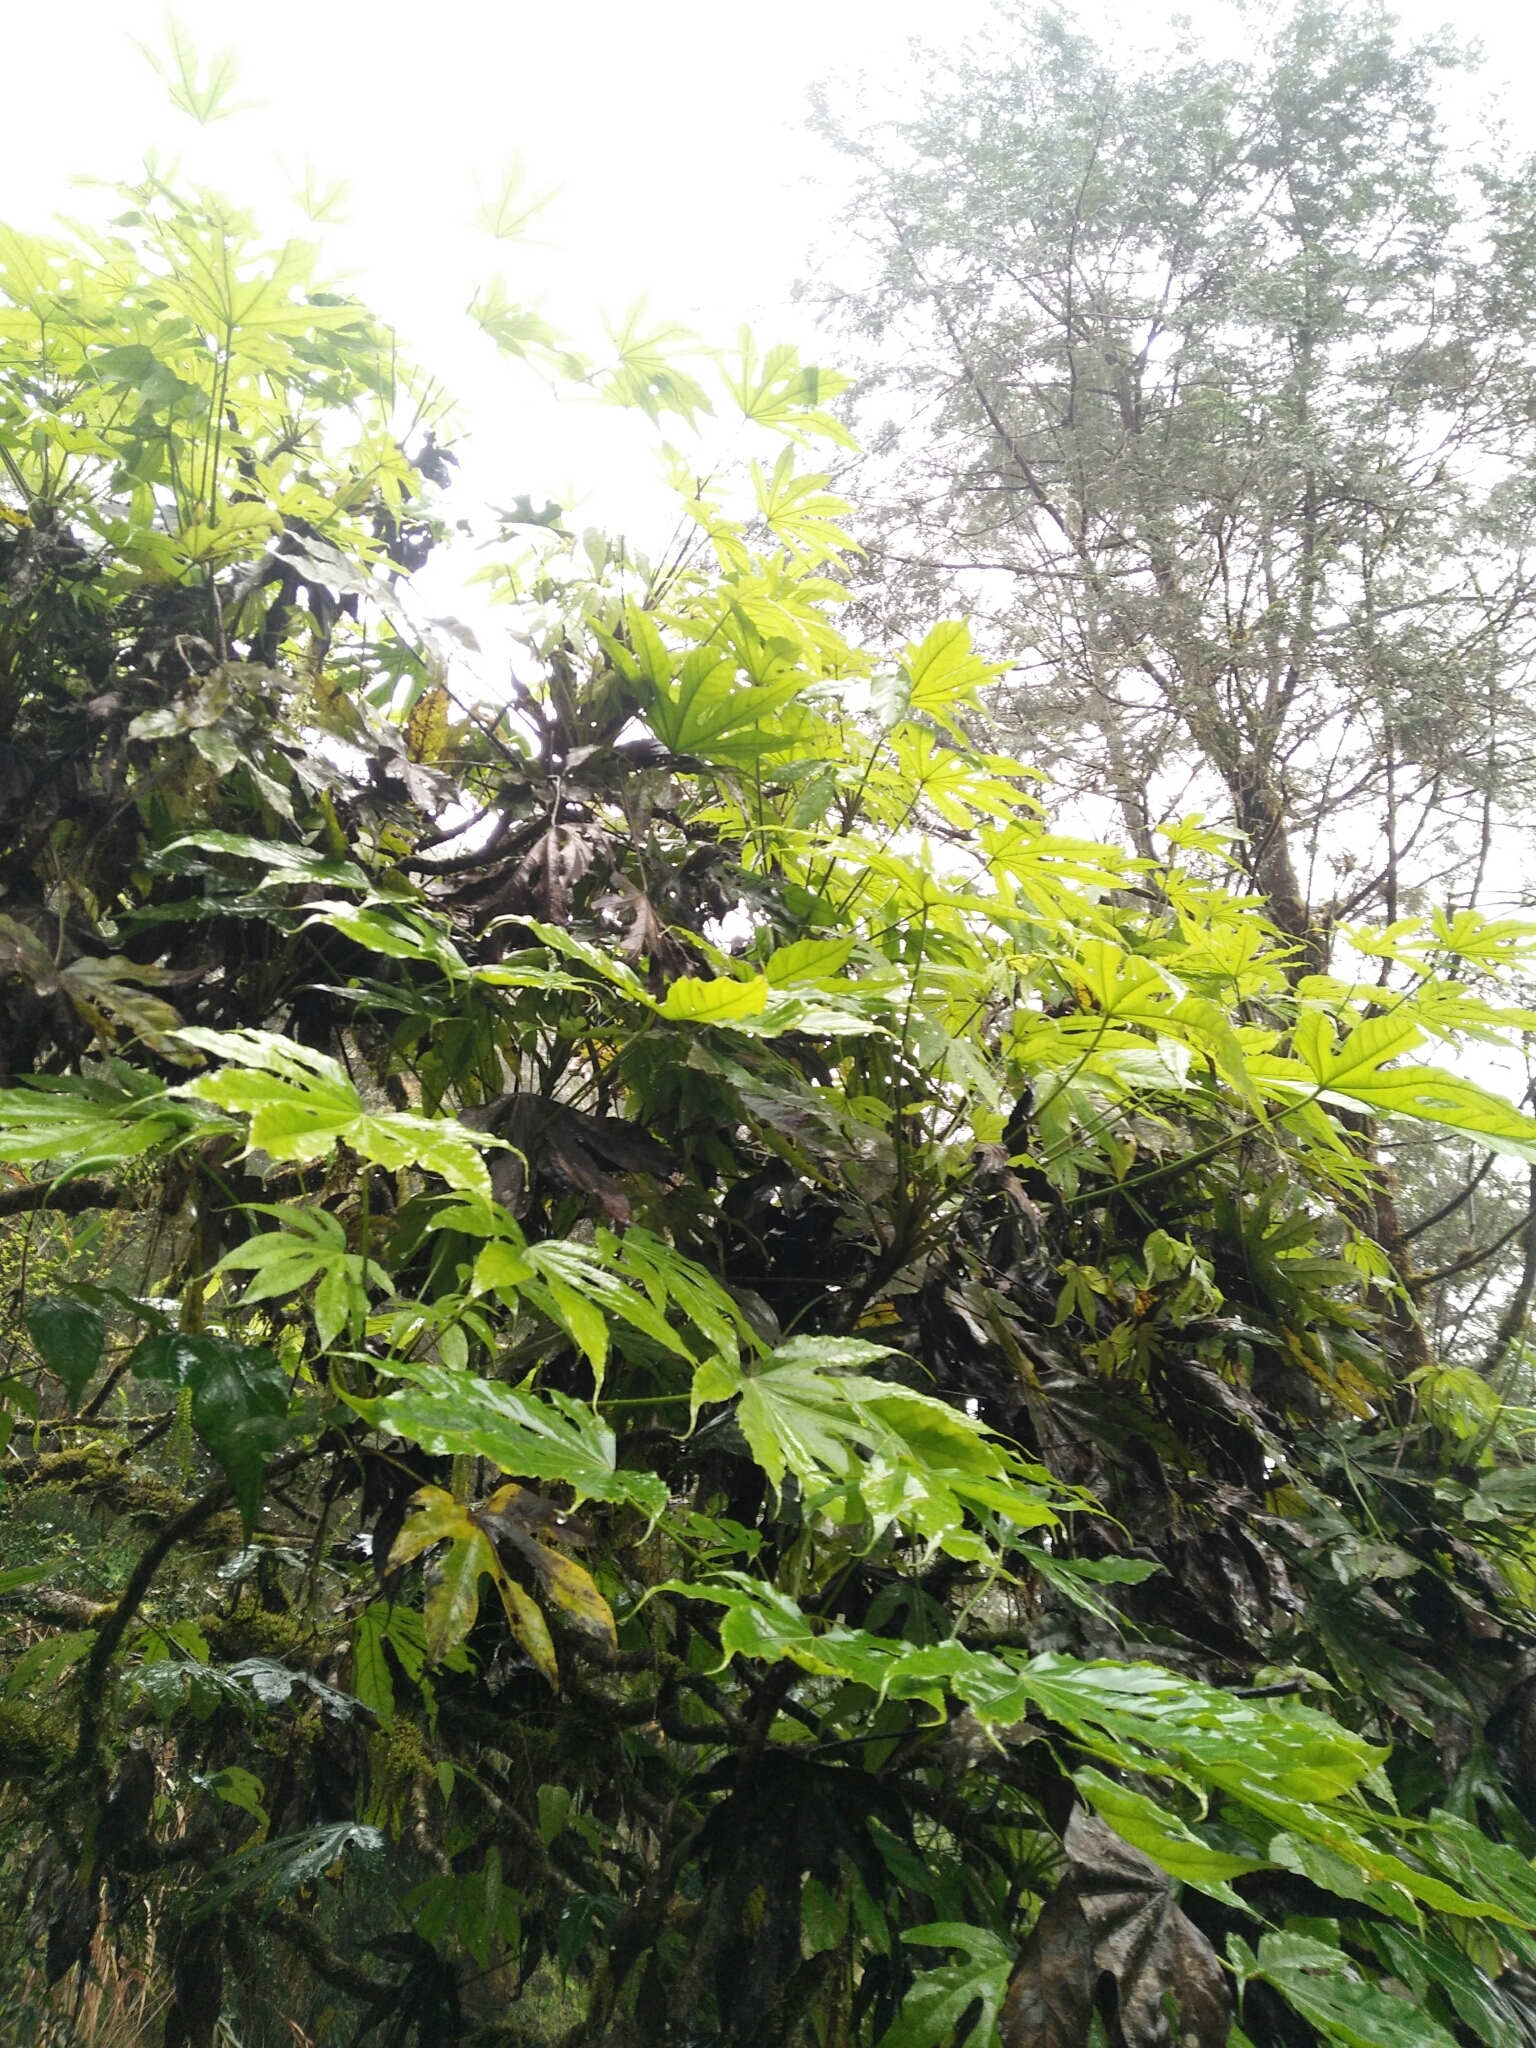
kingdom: Plantae
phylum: Tracheophyta
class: Magnoliopsida
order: Apiales
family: Araliaceae
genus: Fatsia
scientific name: Fatsia polycarpa
